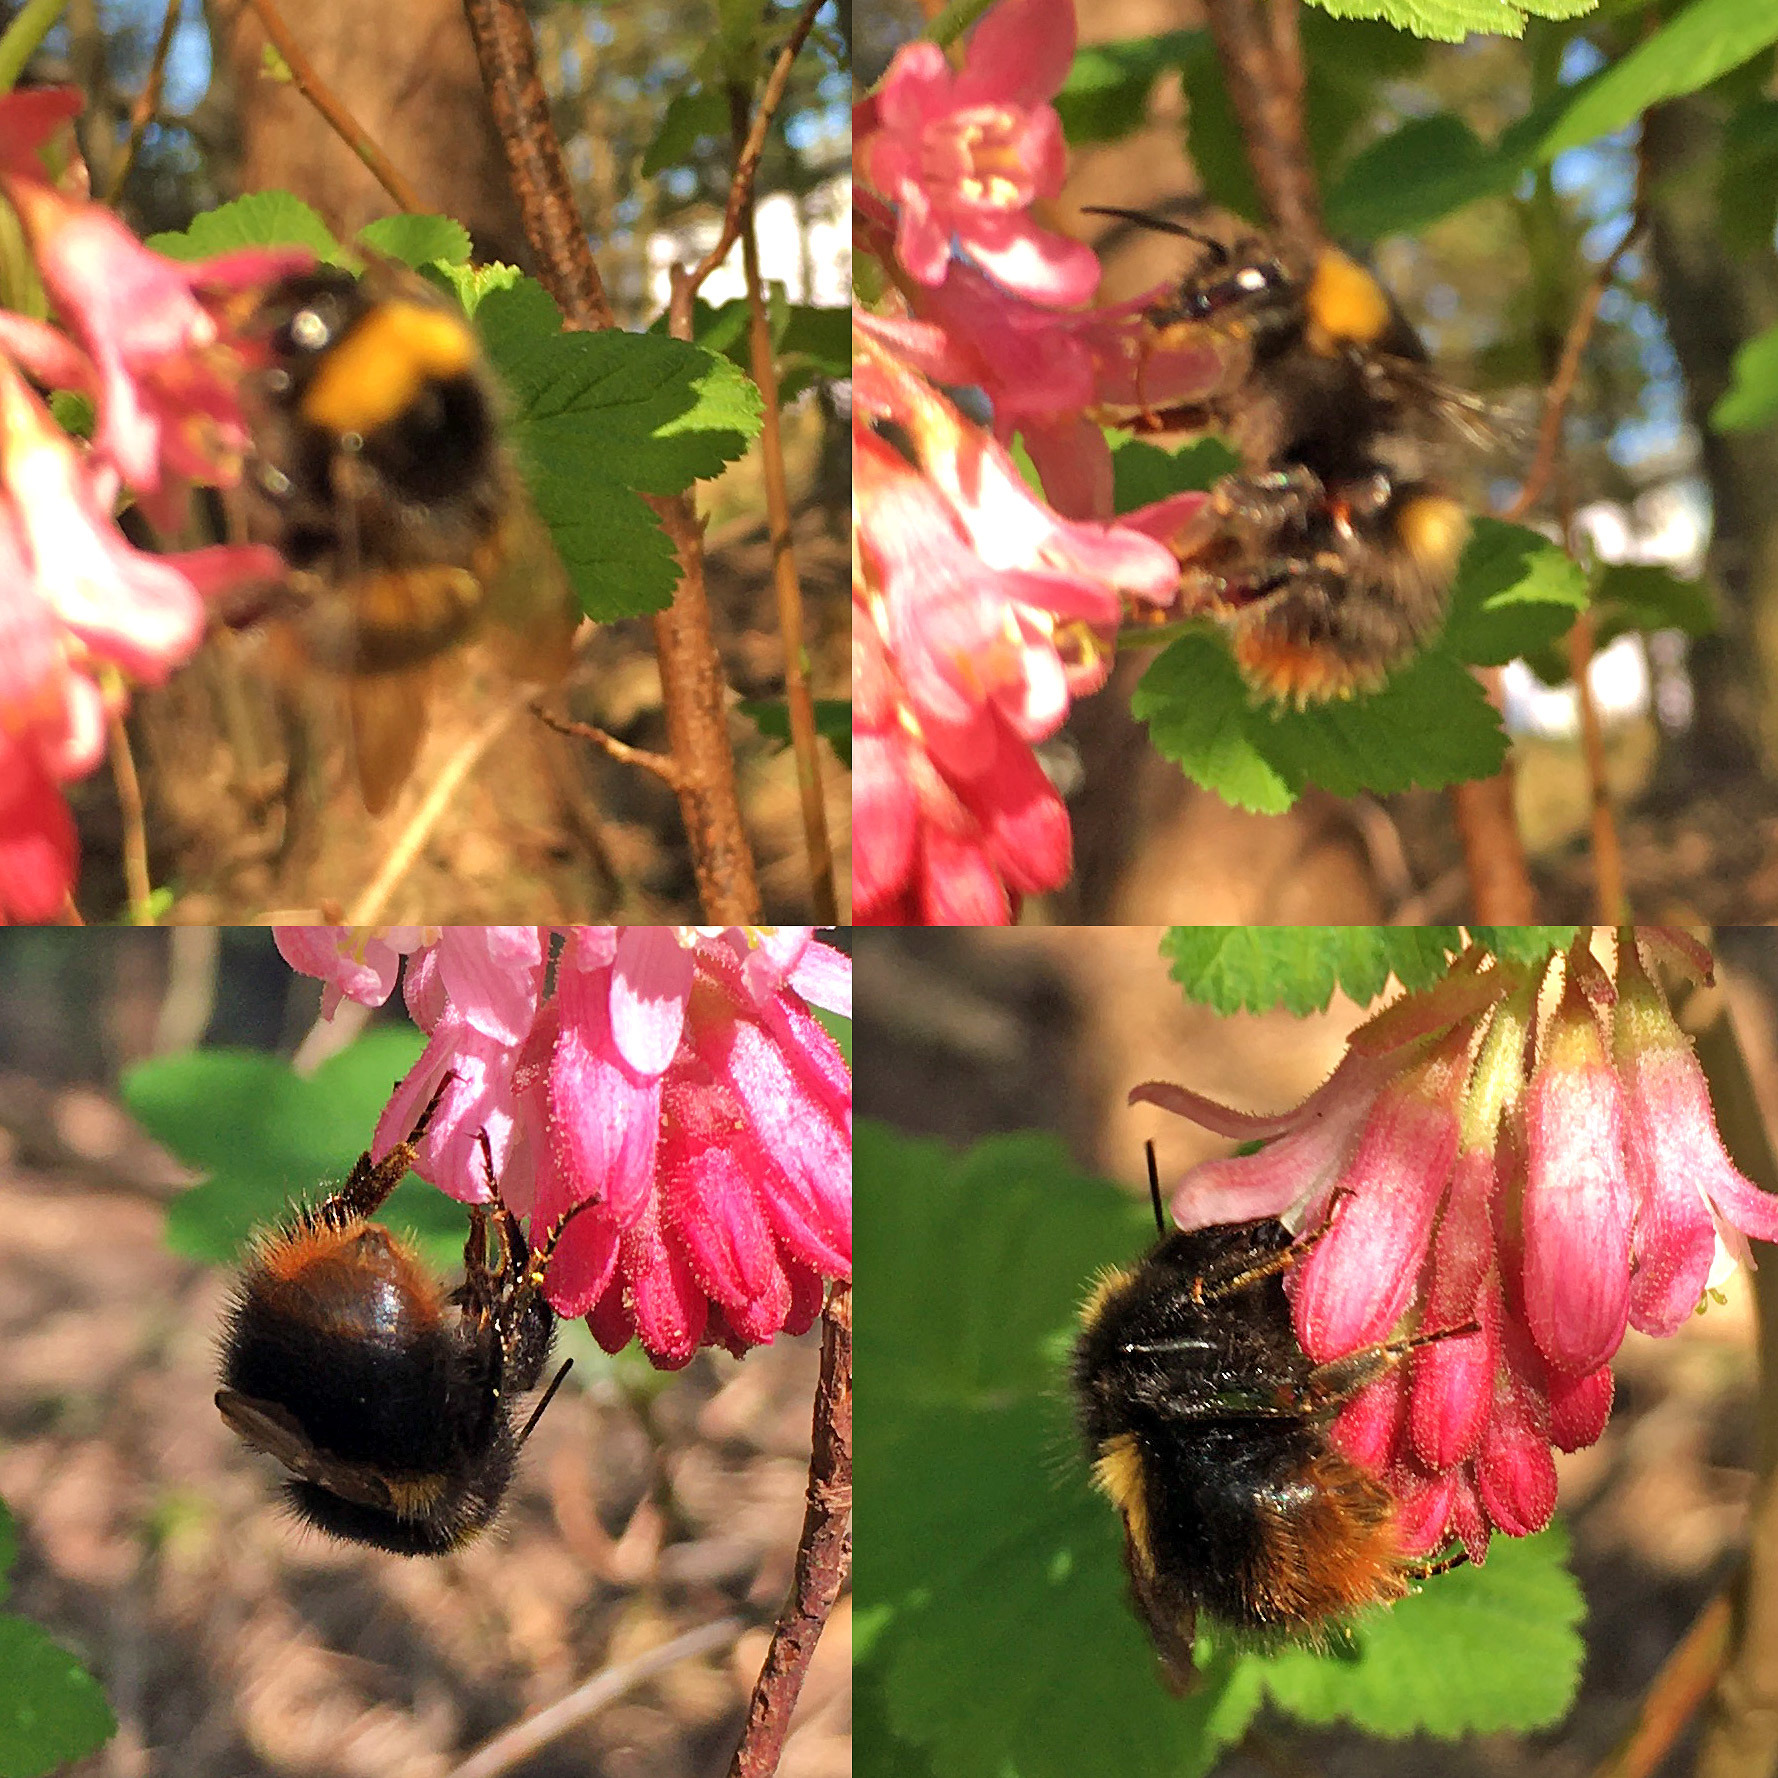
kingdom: Animalia
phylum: Arthropoda
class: Insecta
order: Hymenoptera
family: Apidae
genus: Bombus
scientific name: Bombus pratorum
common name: Early humble-bee
